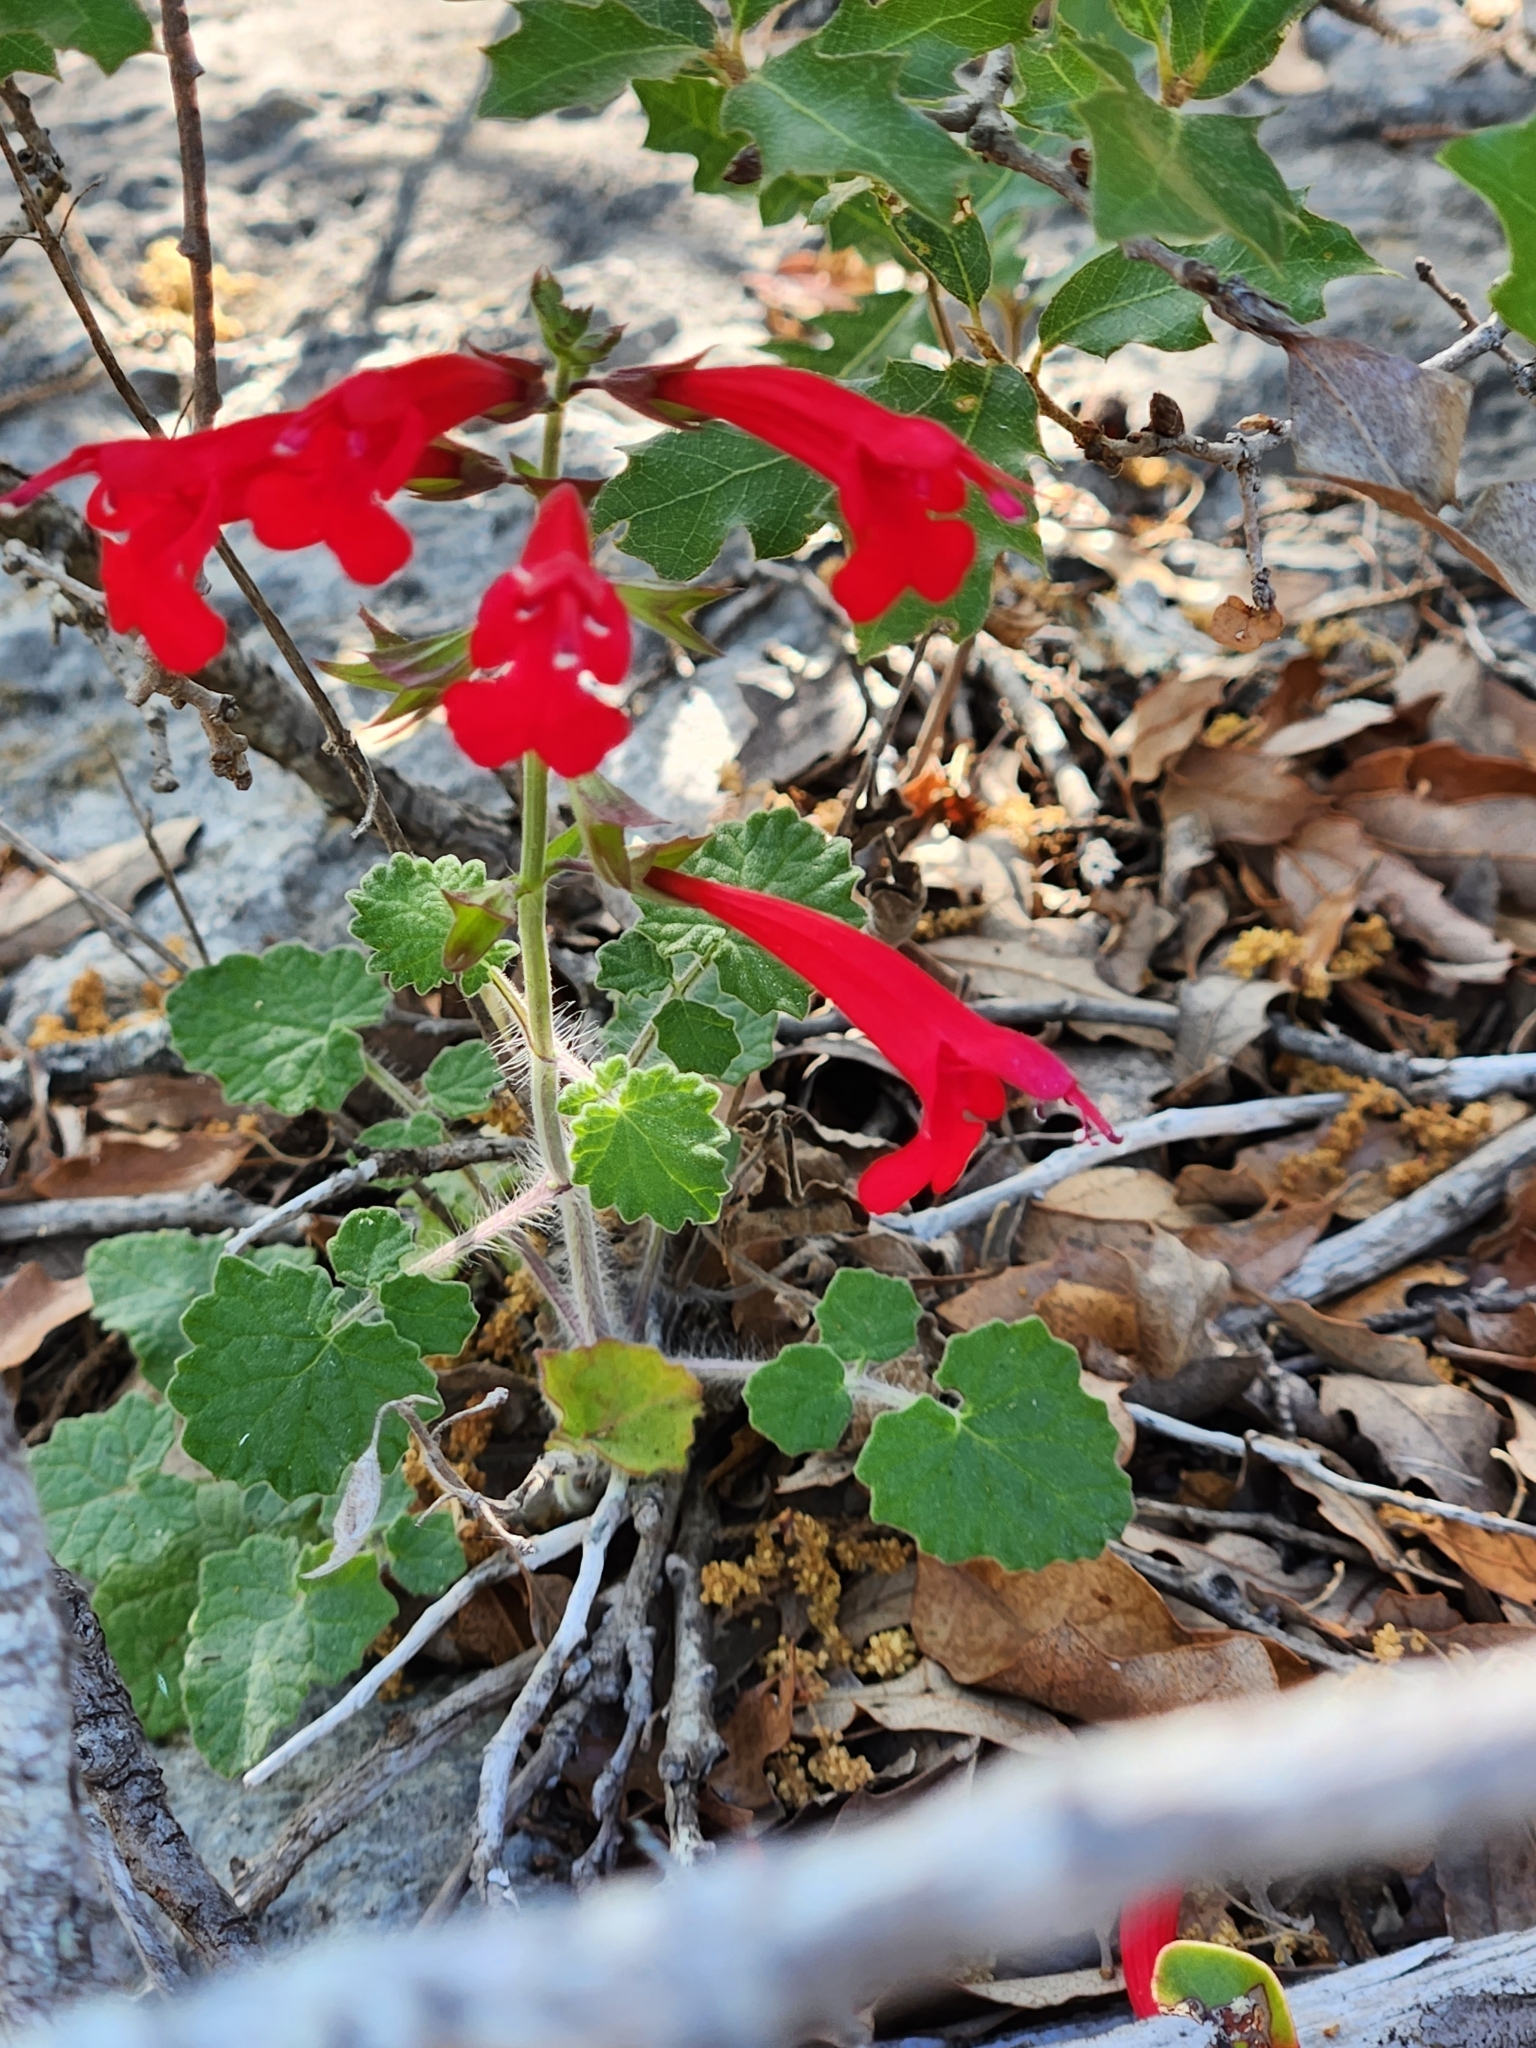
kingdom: Plantae
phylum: Tracheophyta
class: Magnoliopsida
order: Lamiales
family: Lamiaceae
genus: Salvia
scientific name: Salvia roemeriana
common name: Cedar sage
